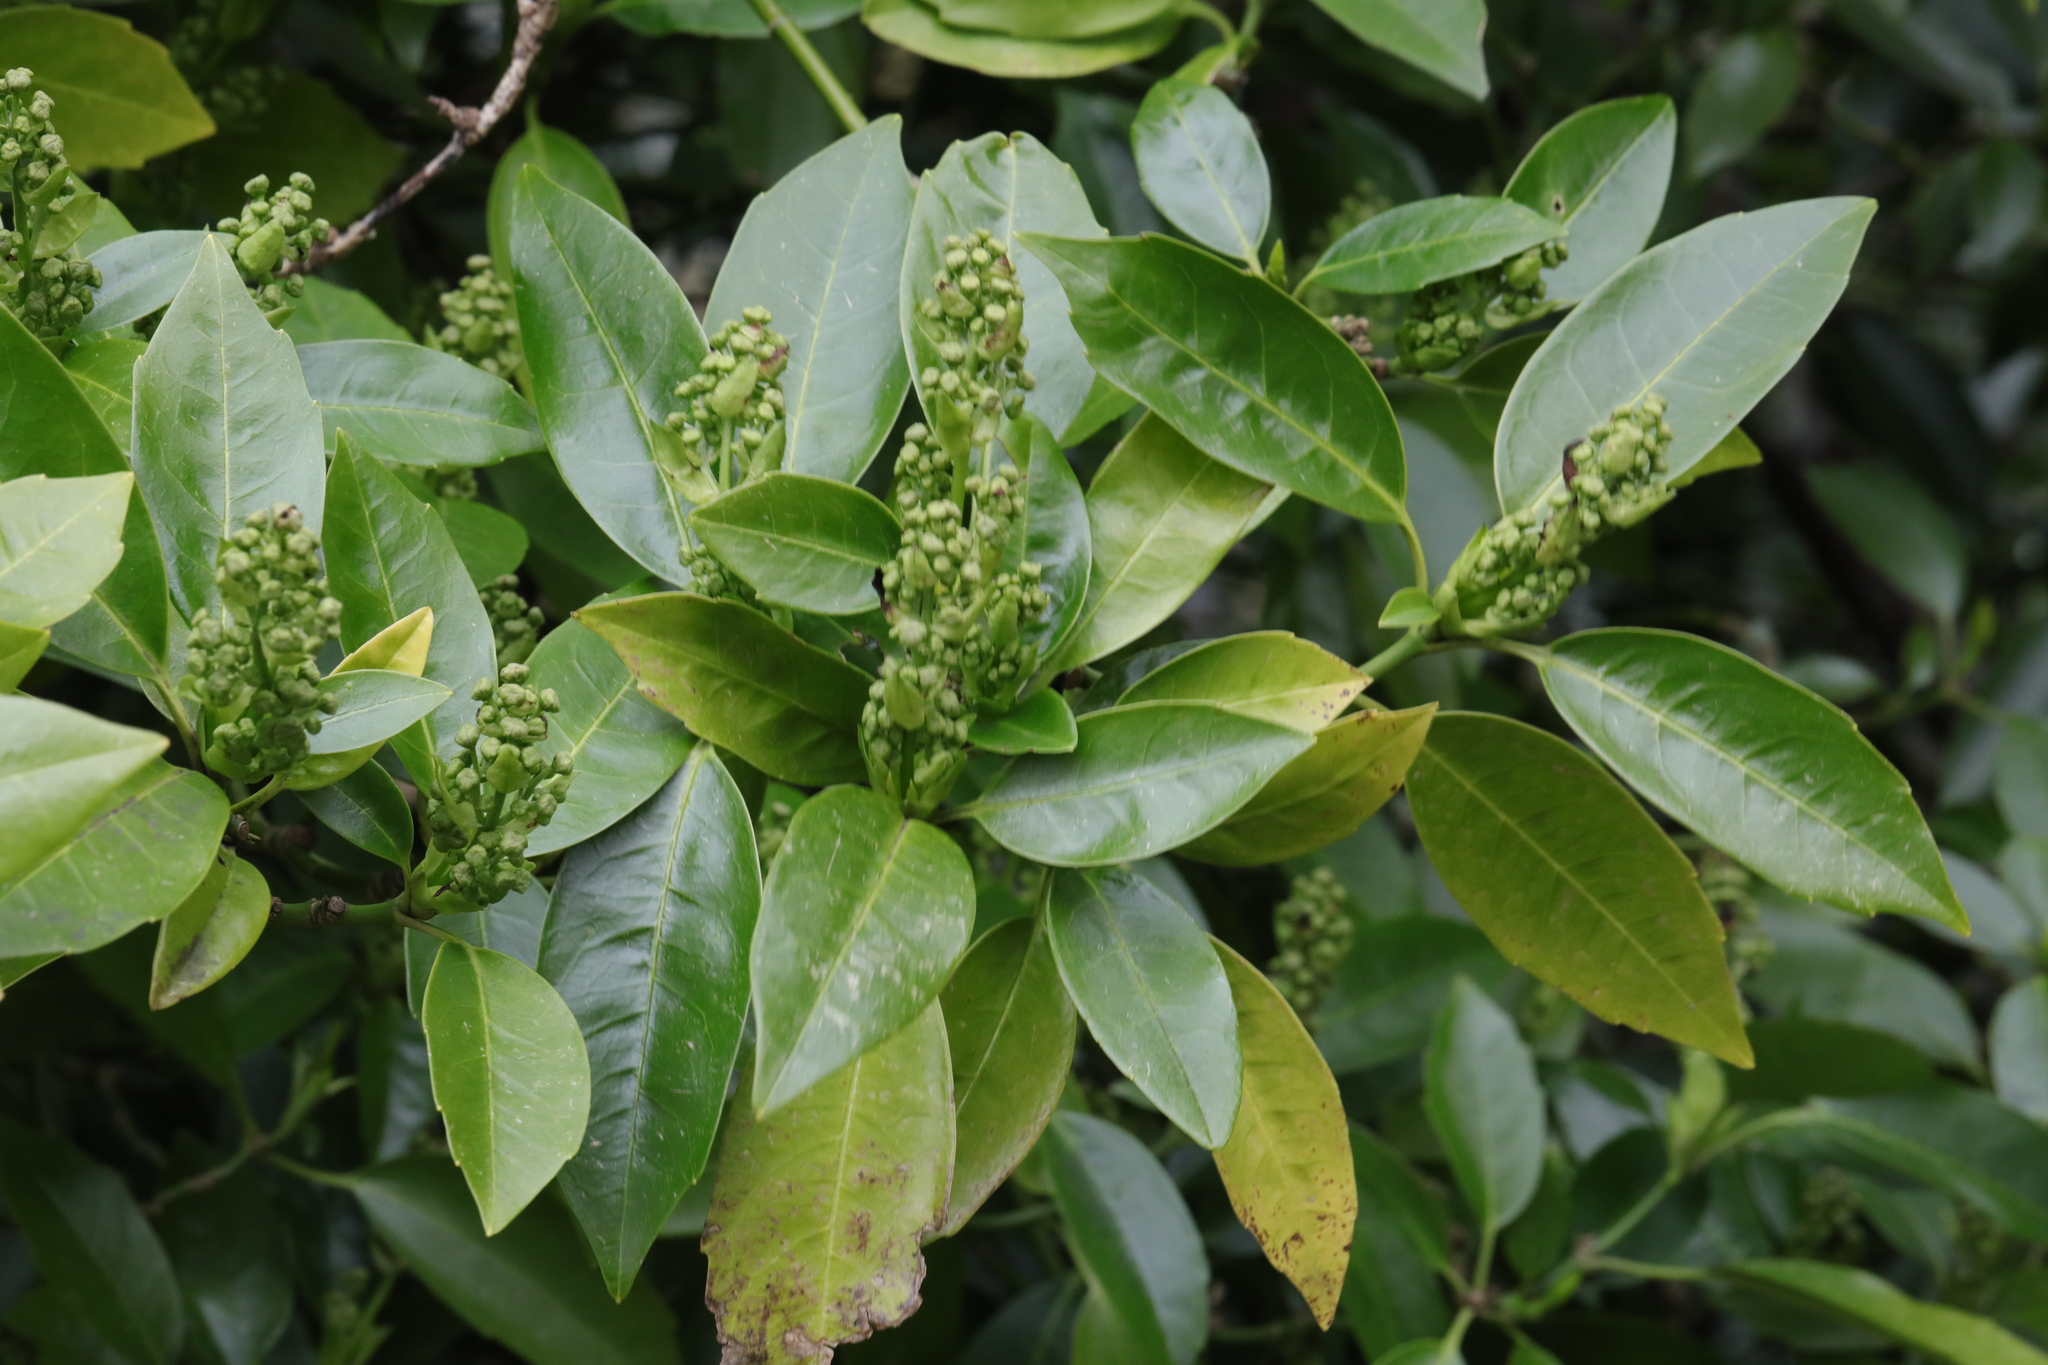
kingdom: Plantae
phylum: Tracheophyta
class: Magnoliopsida
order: Rosales
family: Rosaceae
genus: Prunus
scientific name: Prunus laurocerasus
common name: Cherry laurel
